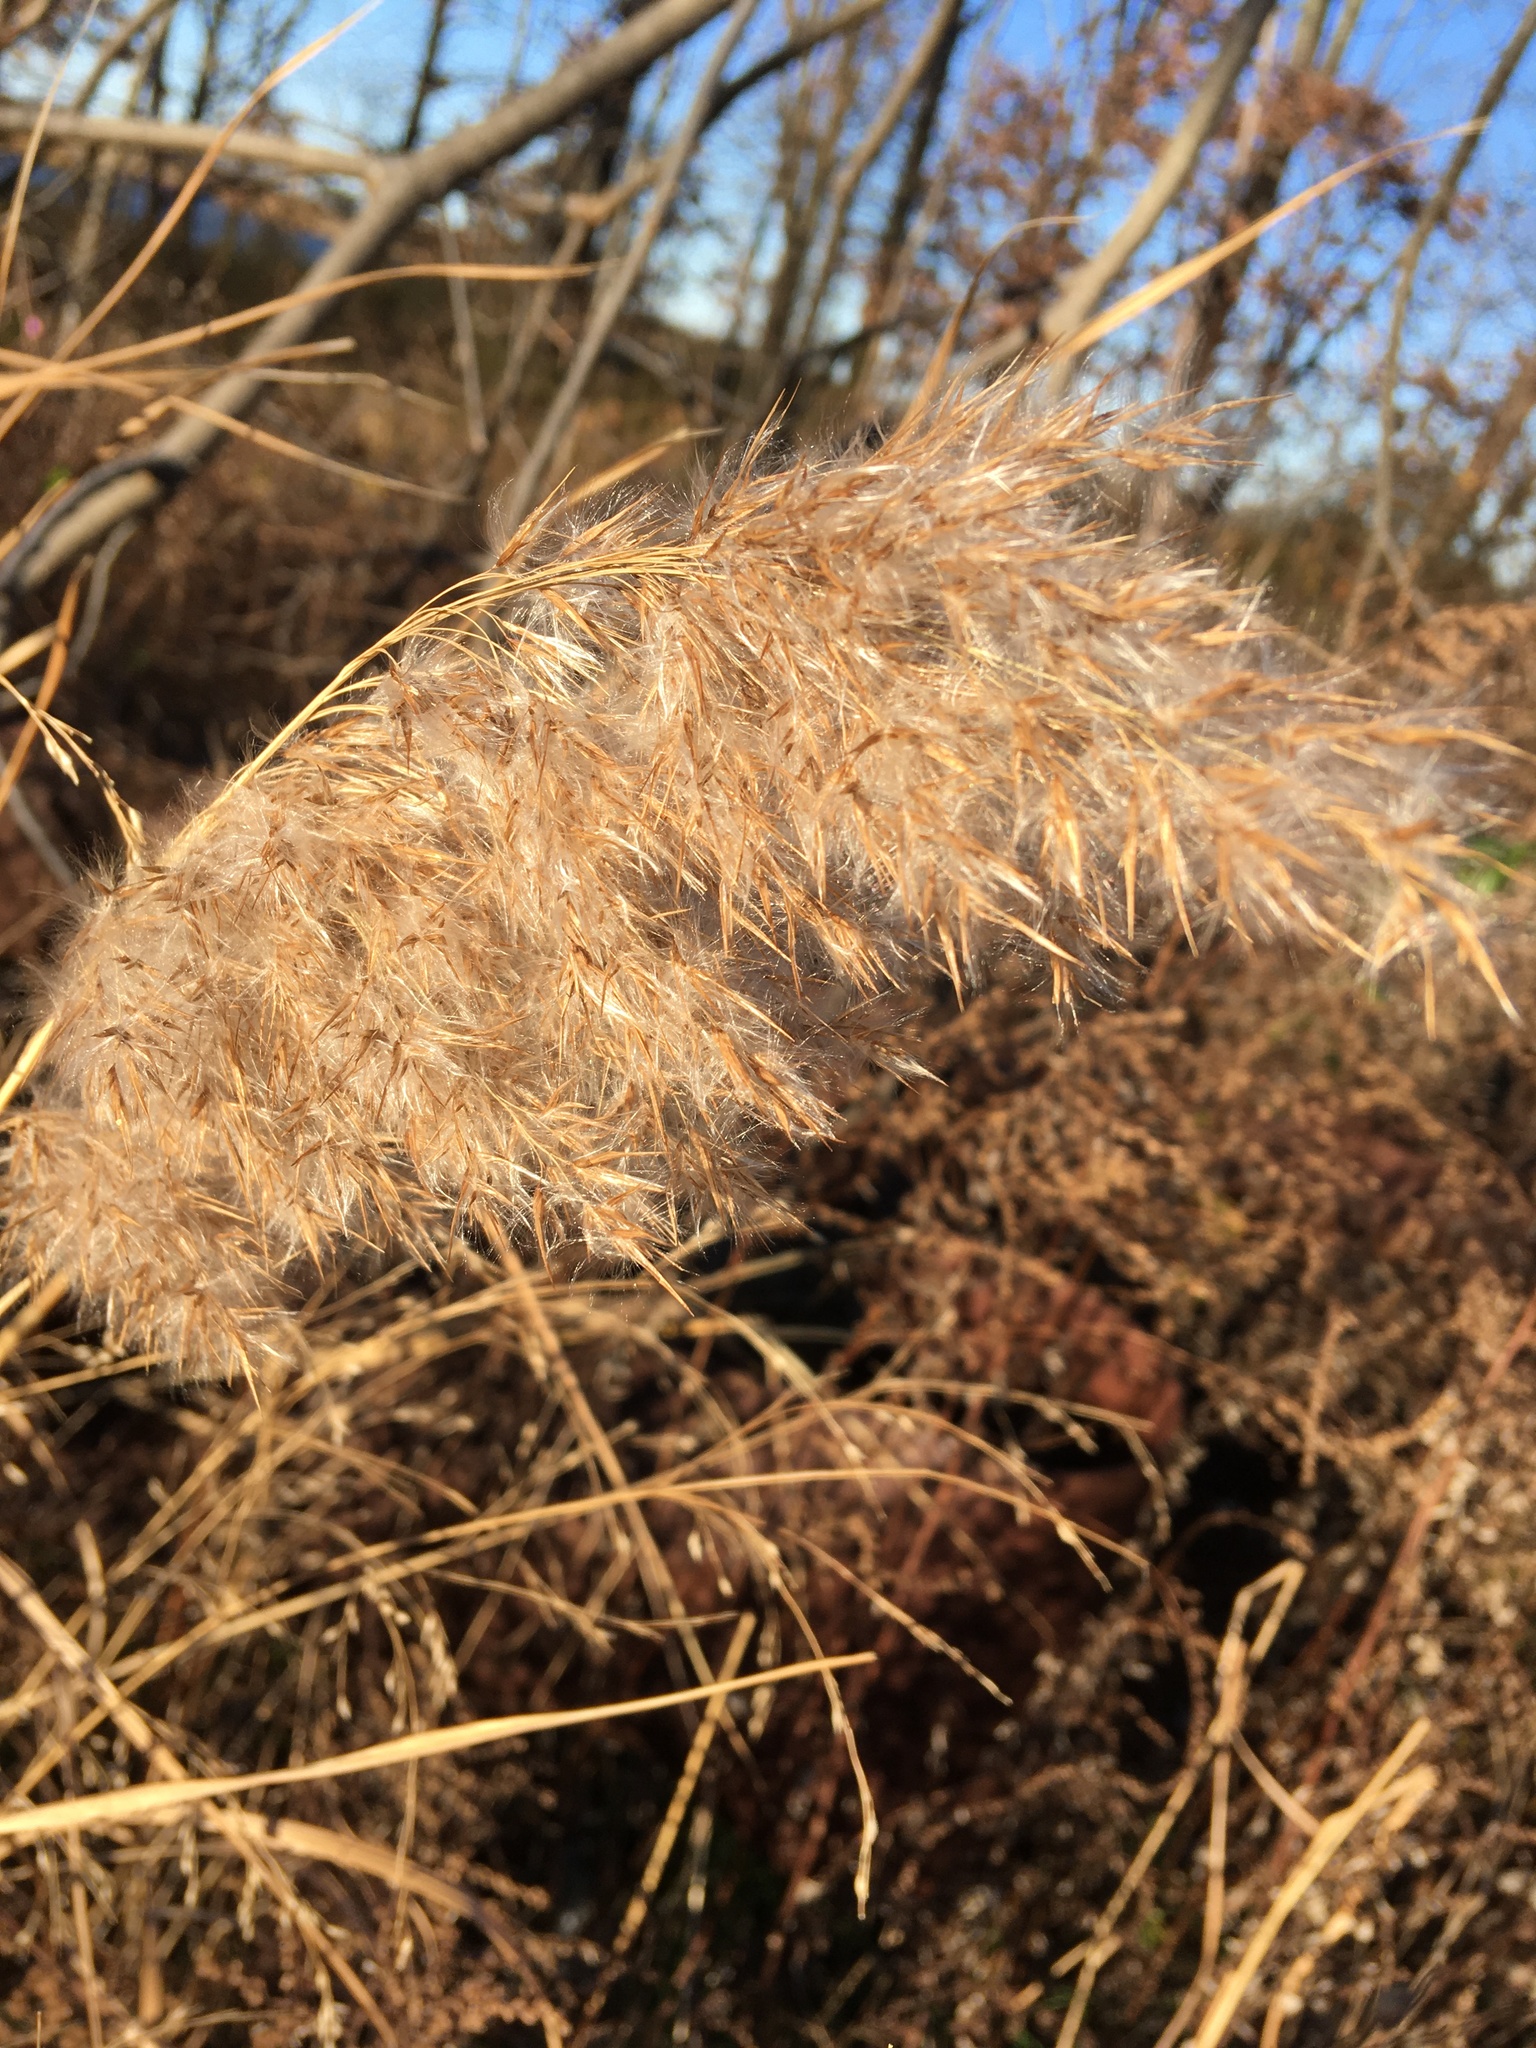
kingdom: Plantae
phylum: Tracheophyta
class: Liliopsida
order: Poales
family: Poaceae
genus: Phragmites
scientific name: Phragmites australis
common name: Common reed
